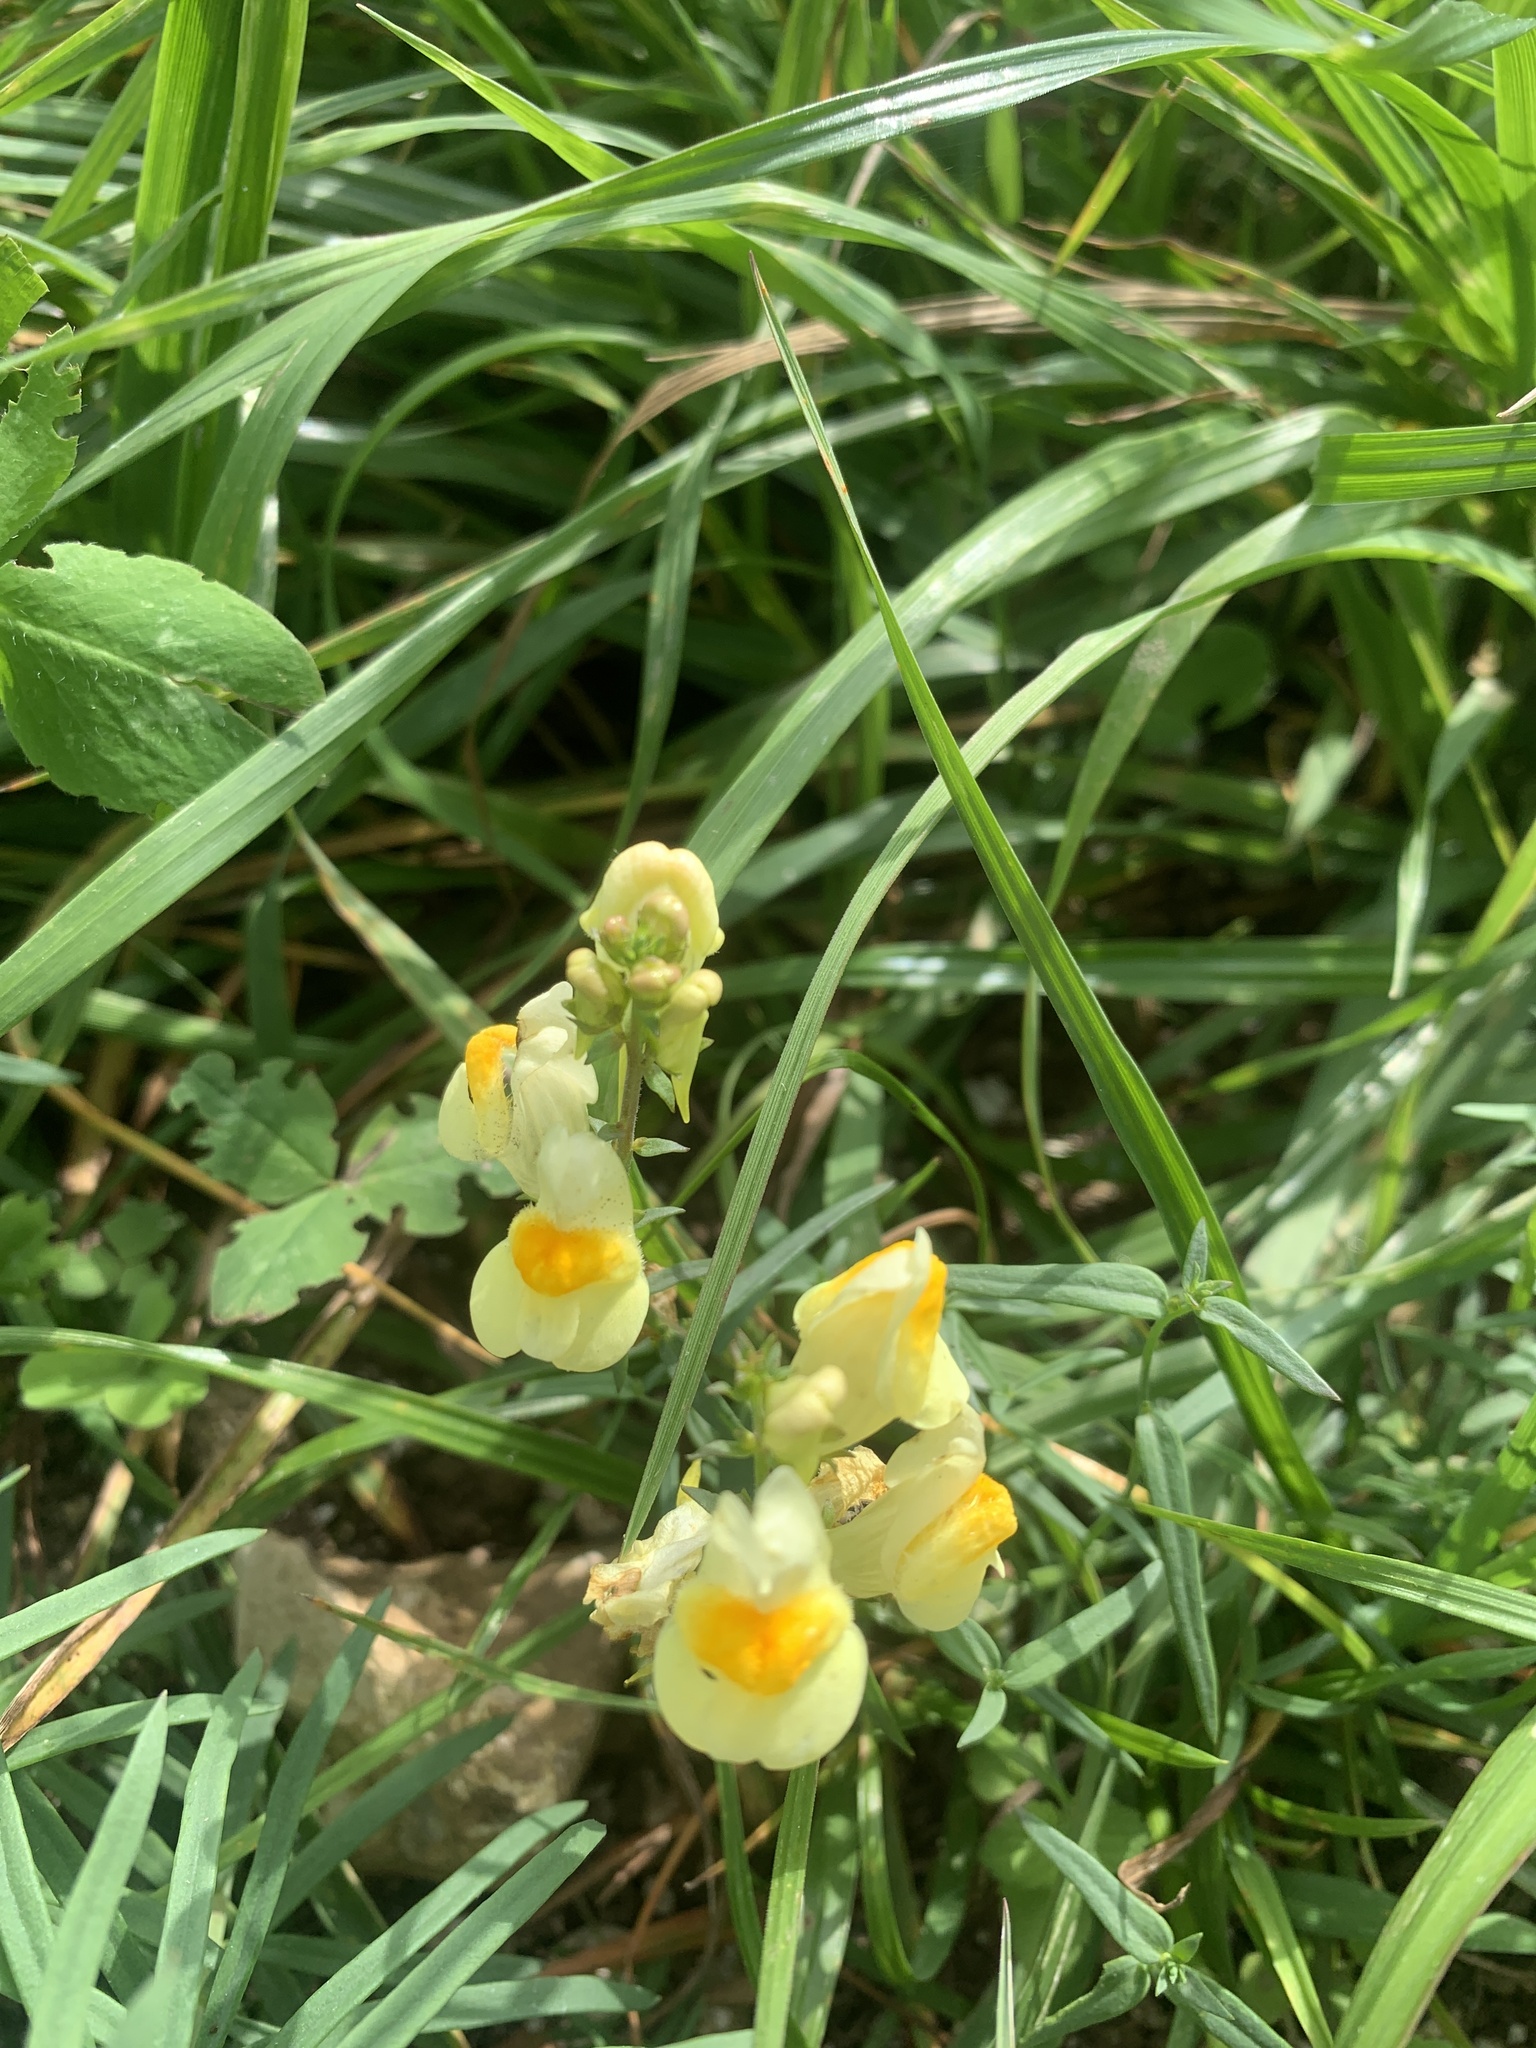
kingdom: Plantae
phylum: Tracheophyta
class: Magnoliopsida
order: Lamiales
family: Plantaginaceae
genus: Linaria
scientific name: Linaria vulgaris
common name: Butter and eggs
